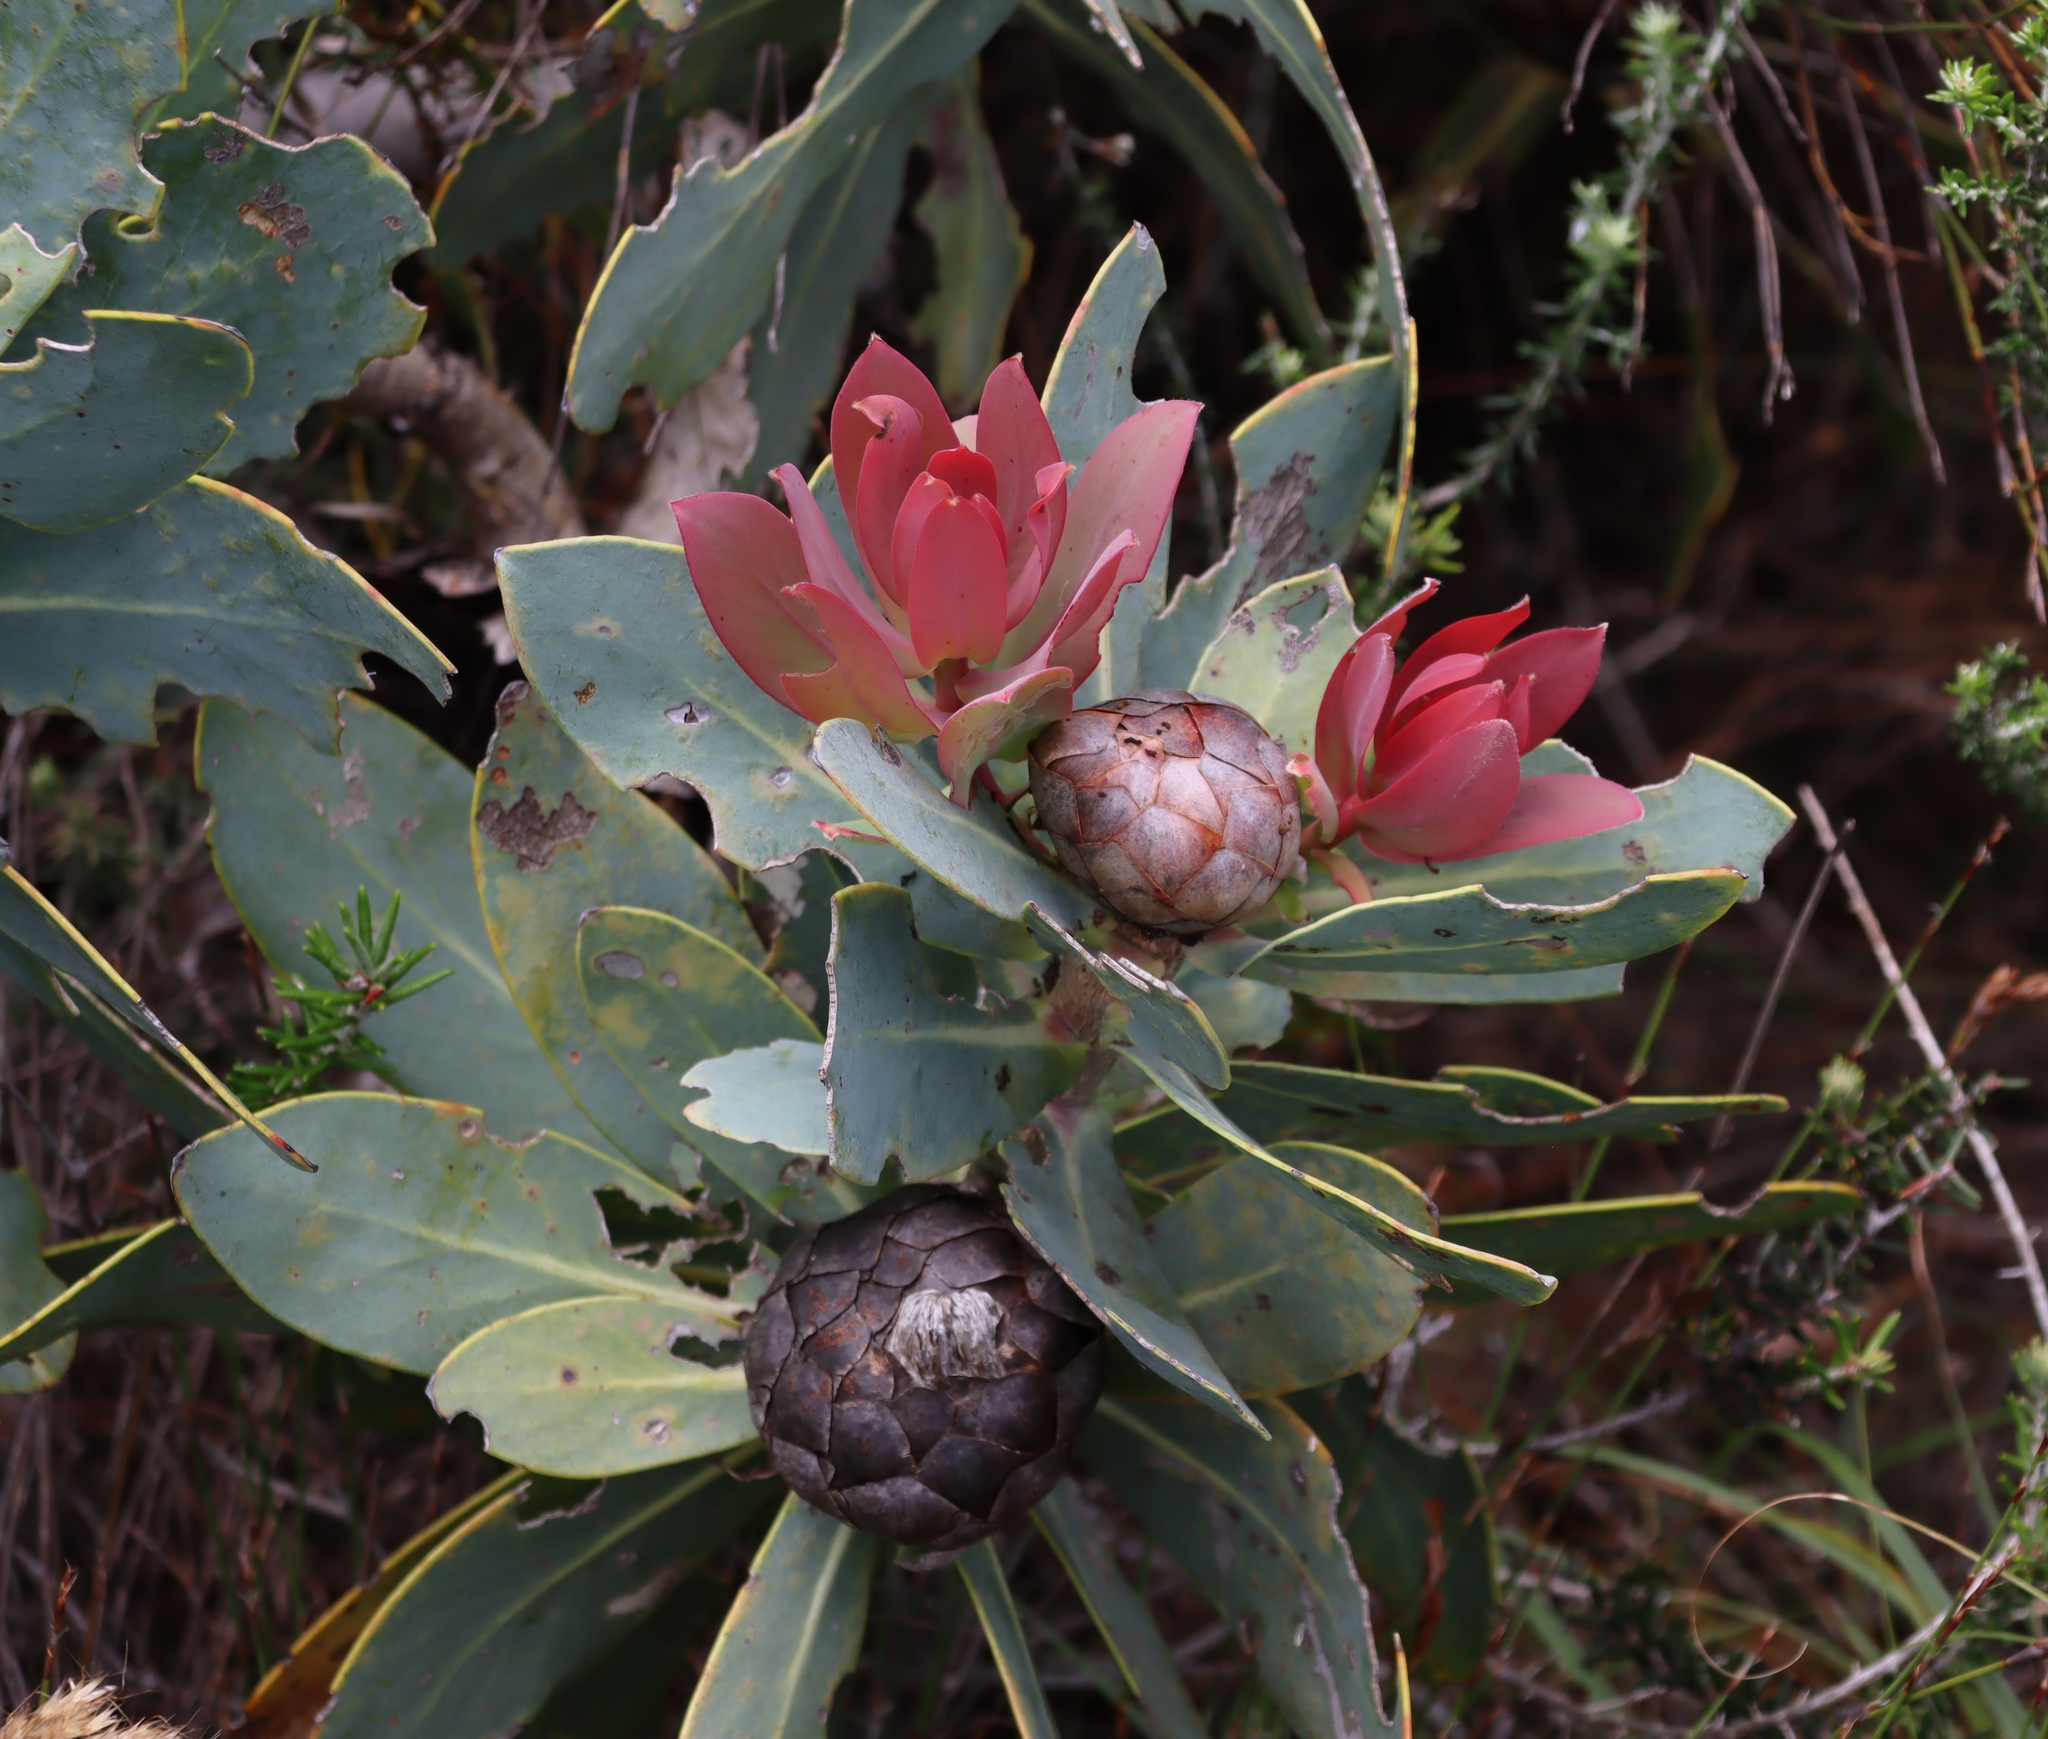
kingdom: Plantae
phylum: Tracheophyta
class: Magnoliopsida
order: Proteales
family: Proteaceae
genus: Protea
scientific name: Protea nitida
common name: Tree protea
